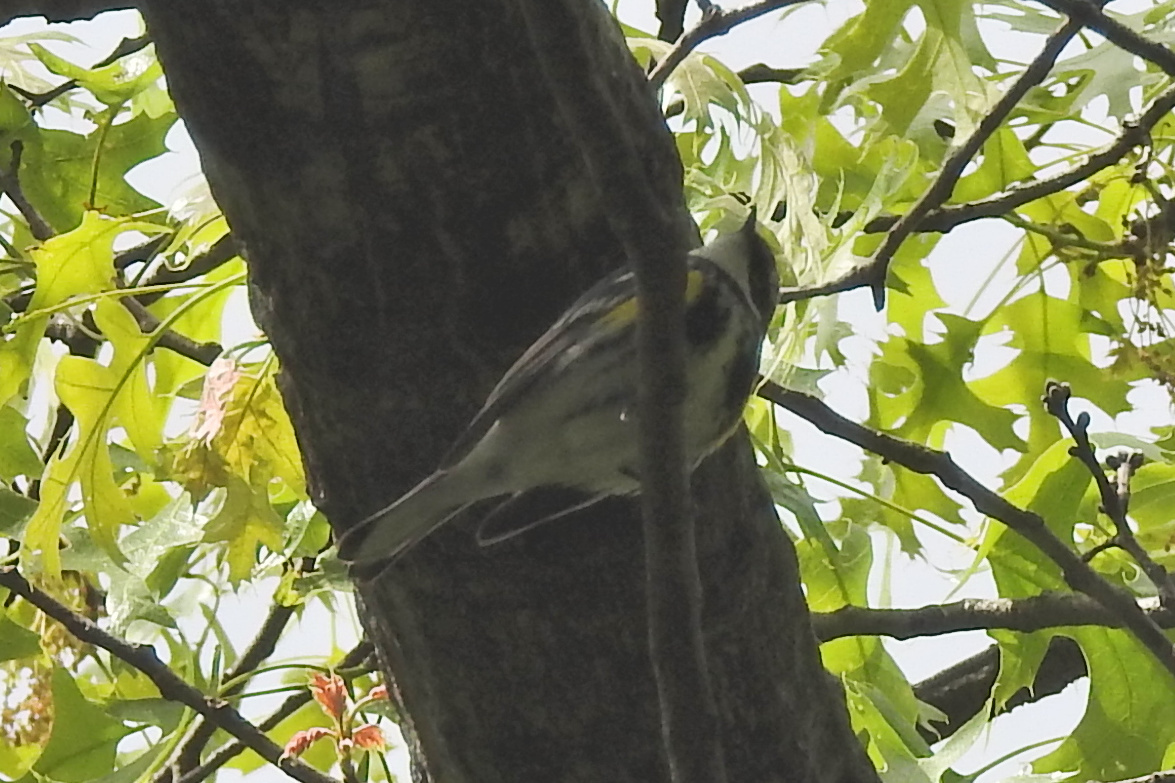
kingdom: Animalia
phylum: Chordata
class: Aves
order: Passeriformes
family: Parulidae
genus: Setophaga
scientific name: Setophaga coronata
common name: Myrtle warbler
